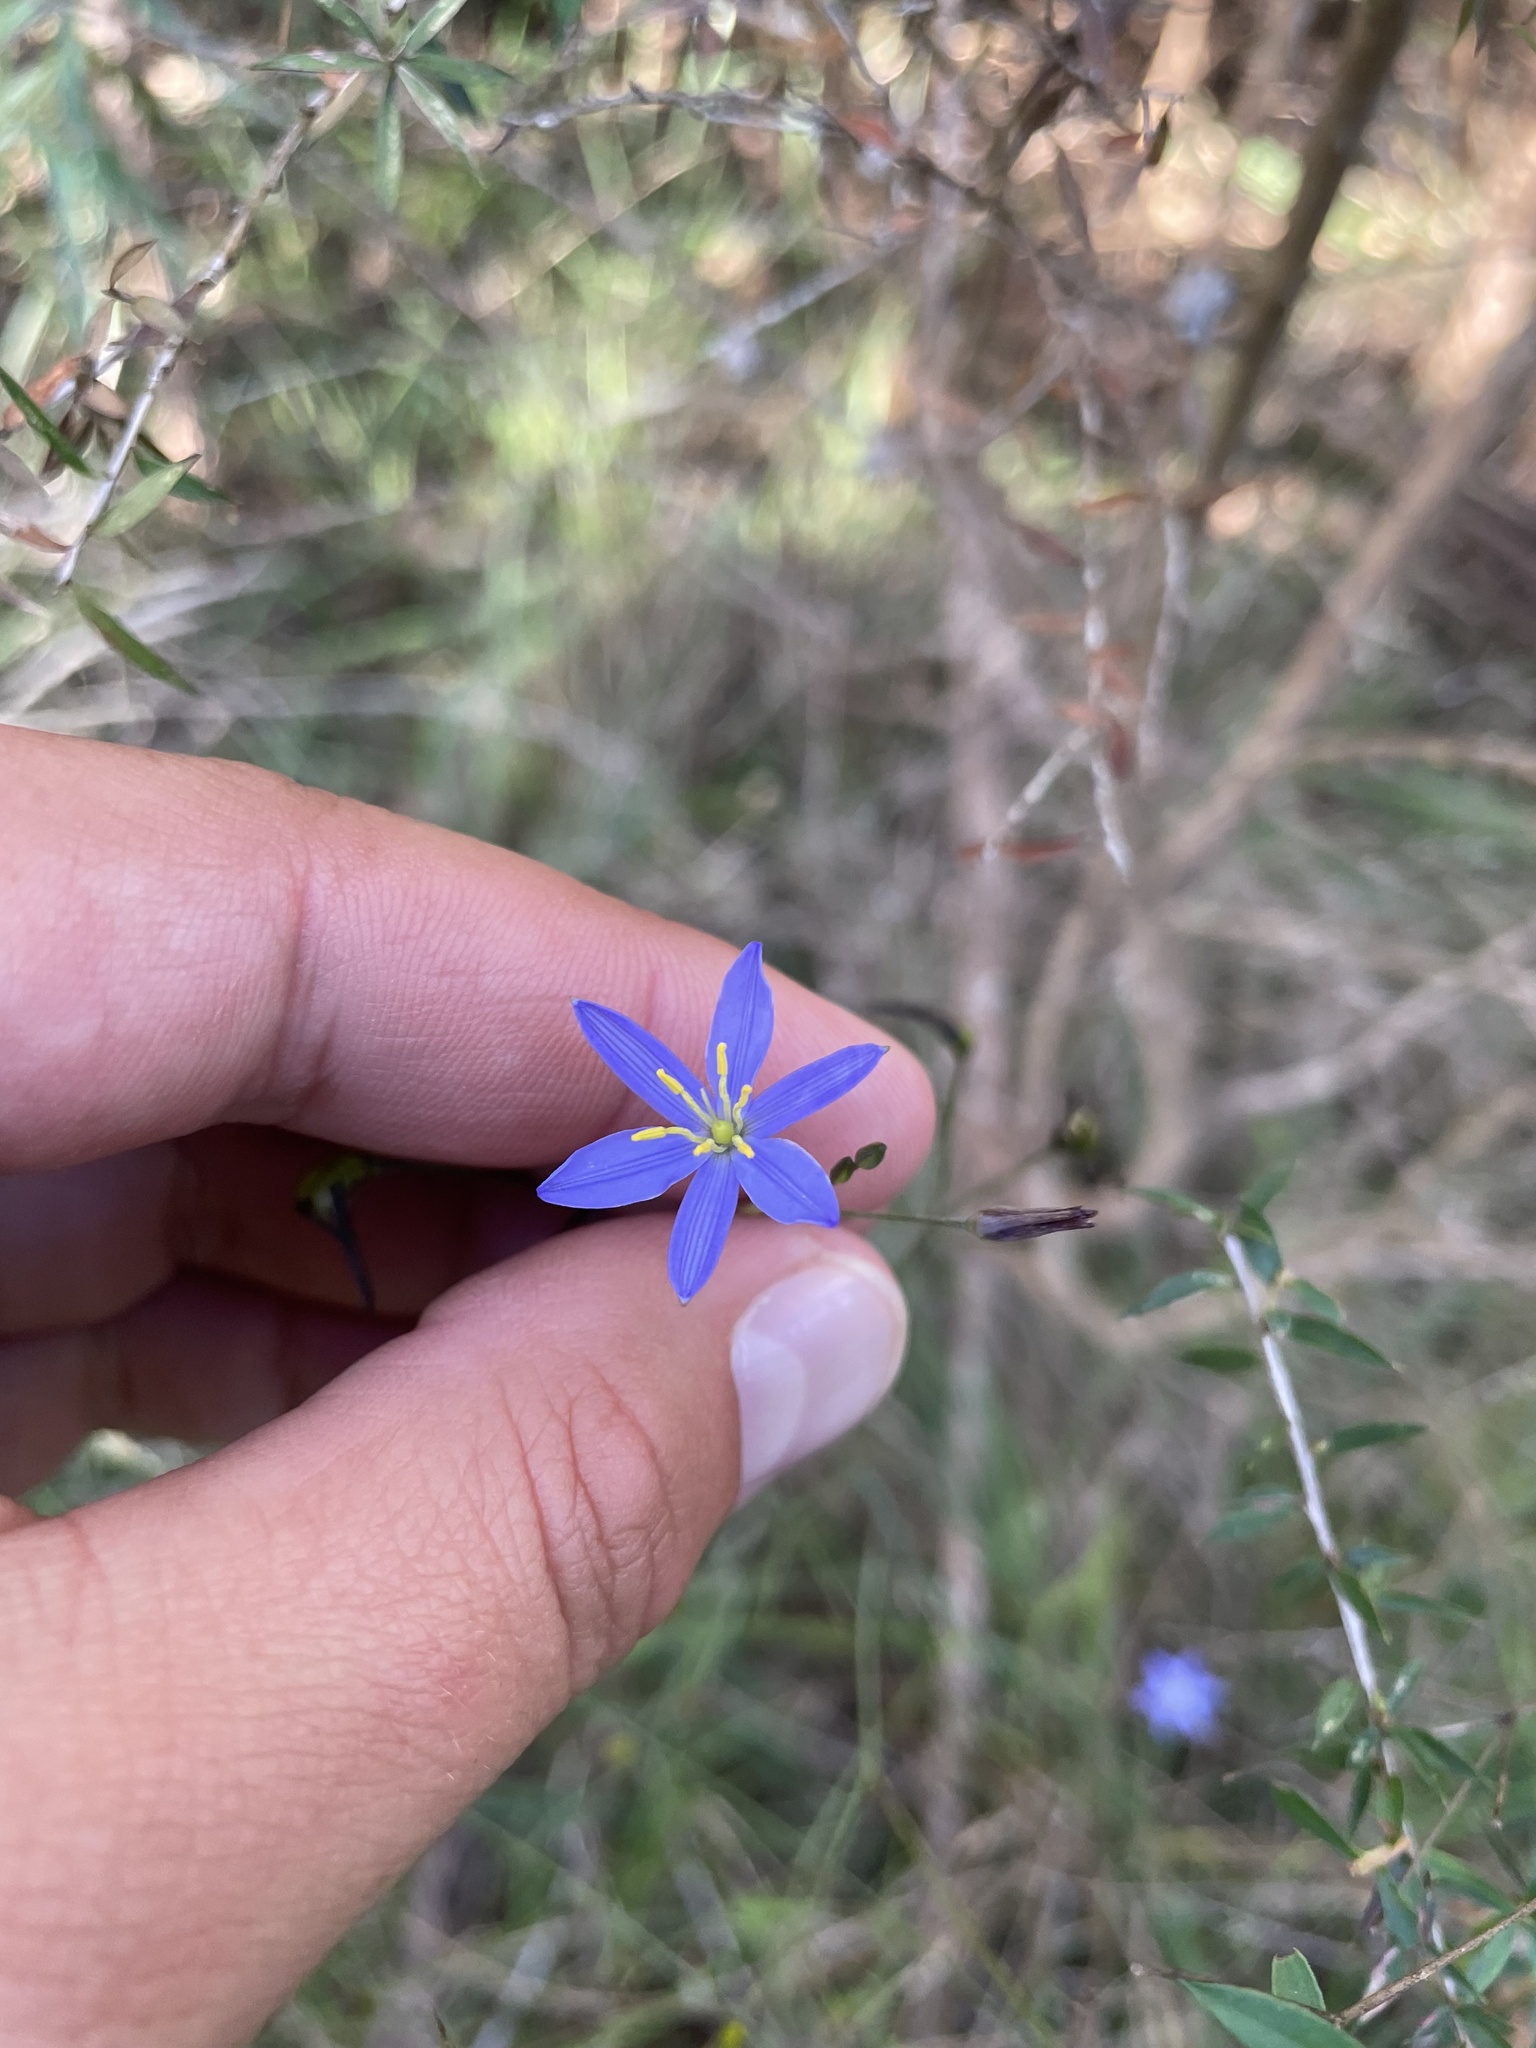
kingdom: Plantae
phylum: Tracheophyta
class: Liliopsida
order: Asparagales
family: Asphodelaceae
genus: Thelionema
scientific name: Thelionema caespitosum
